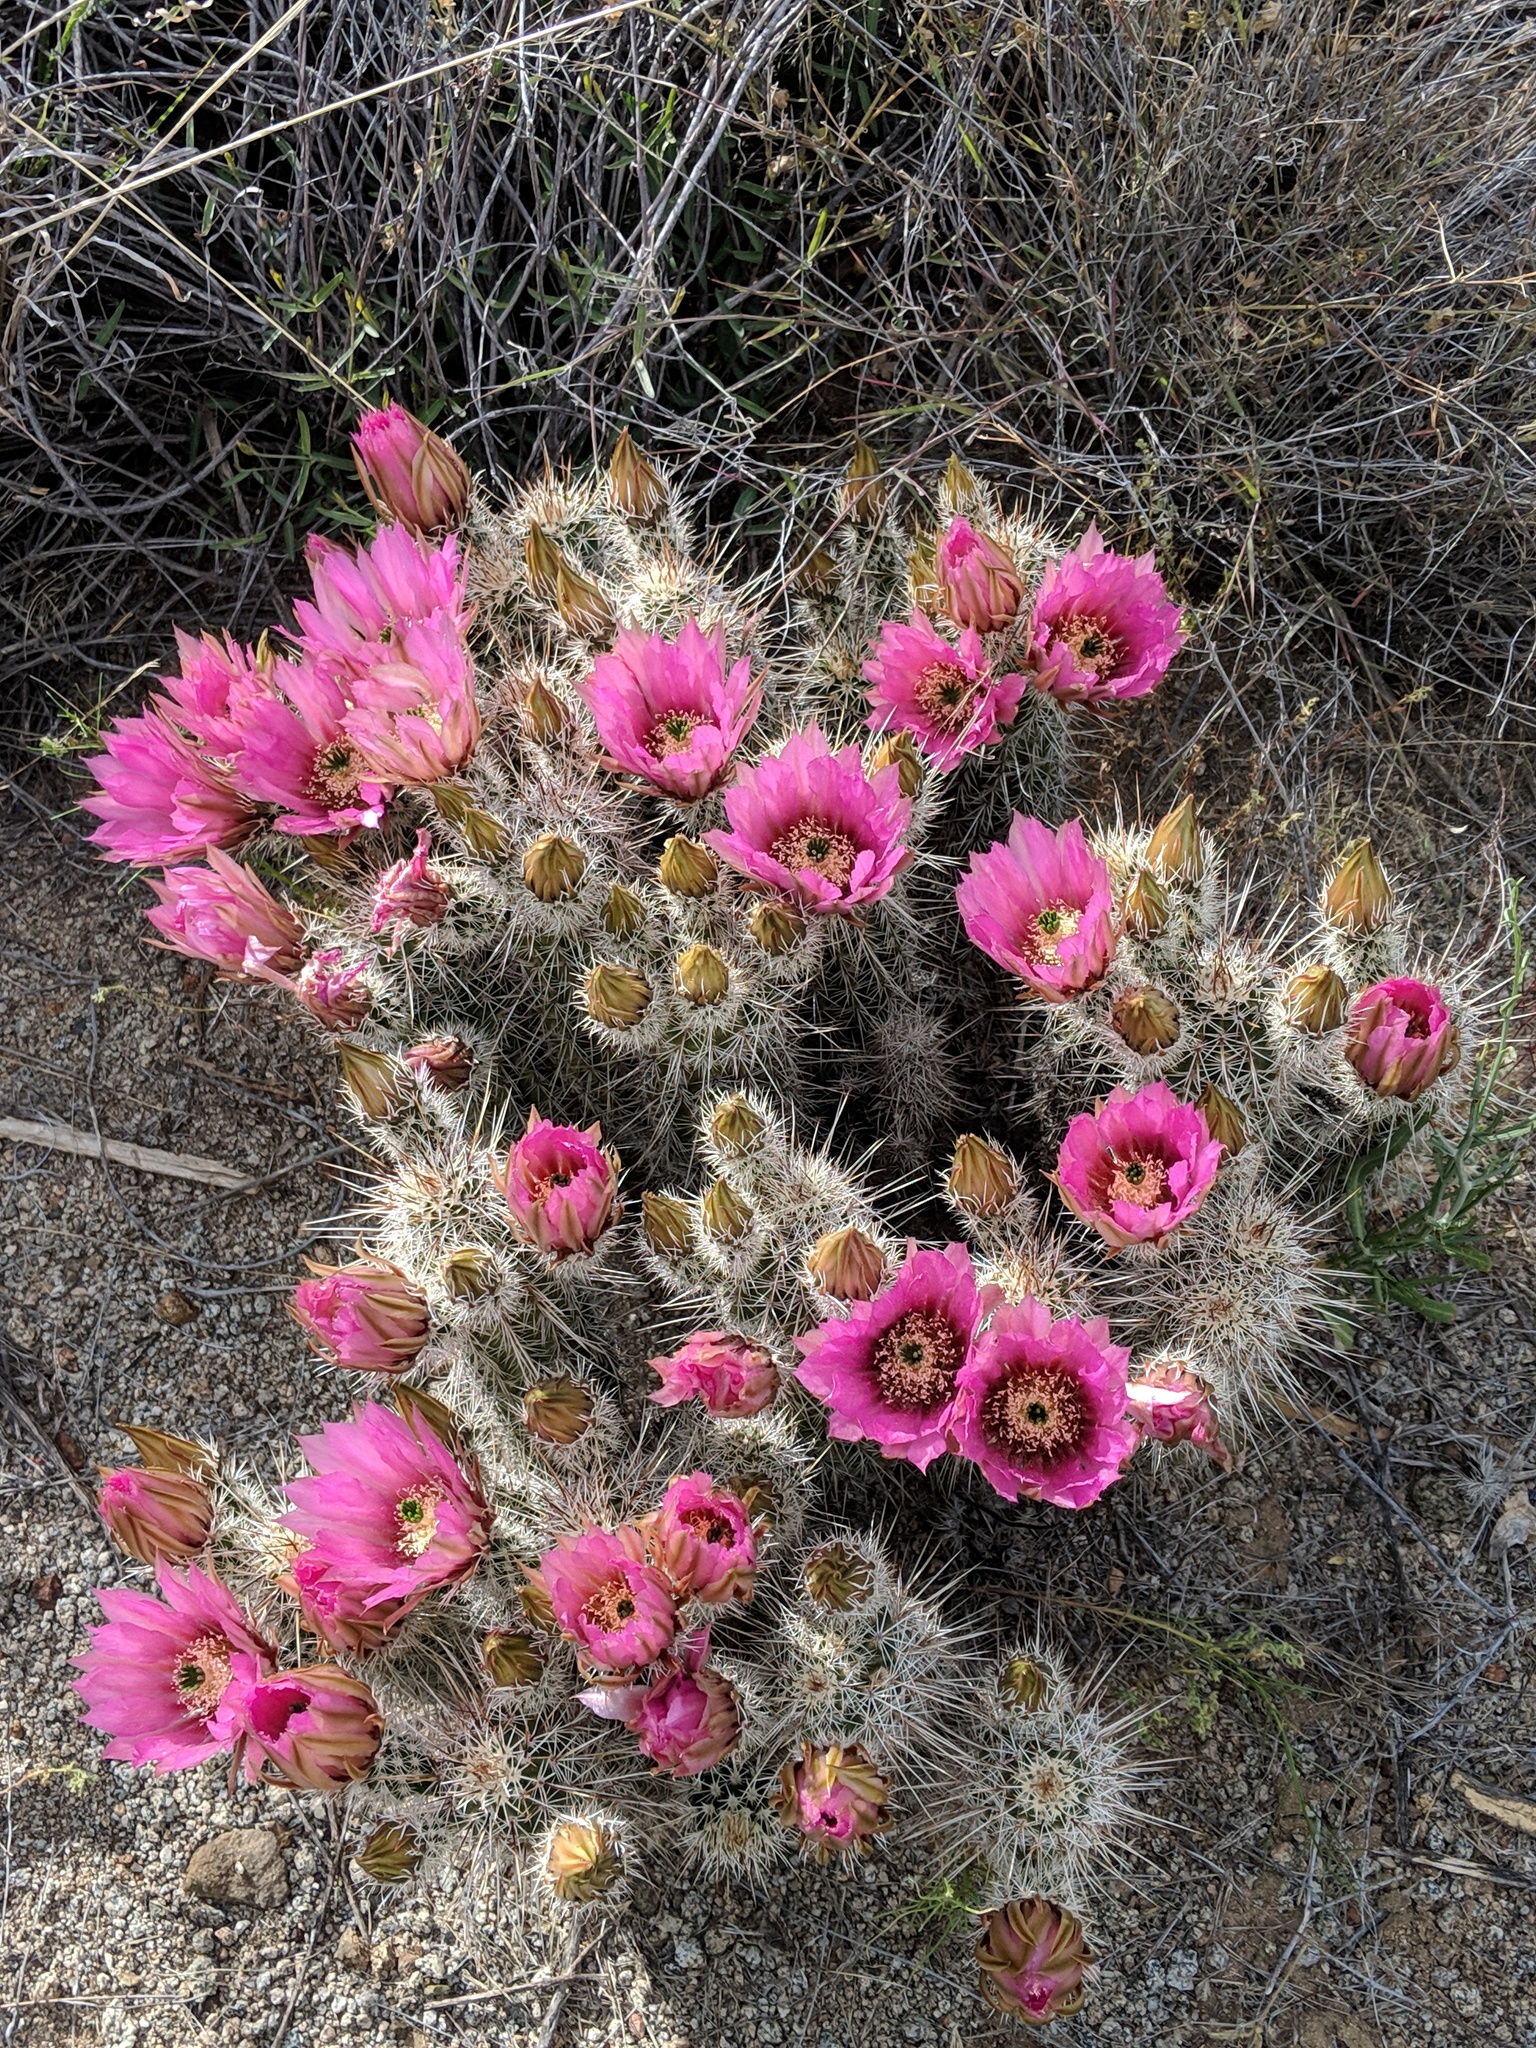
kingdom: Plantae
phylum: Tracheophyta
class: Magnoliopsida
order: Caryophyllales
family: Cactaceae
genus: Echinocereus
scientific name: Echinocereus fasciculatus
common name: Bundle hedgehog
